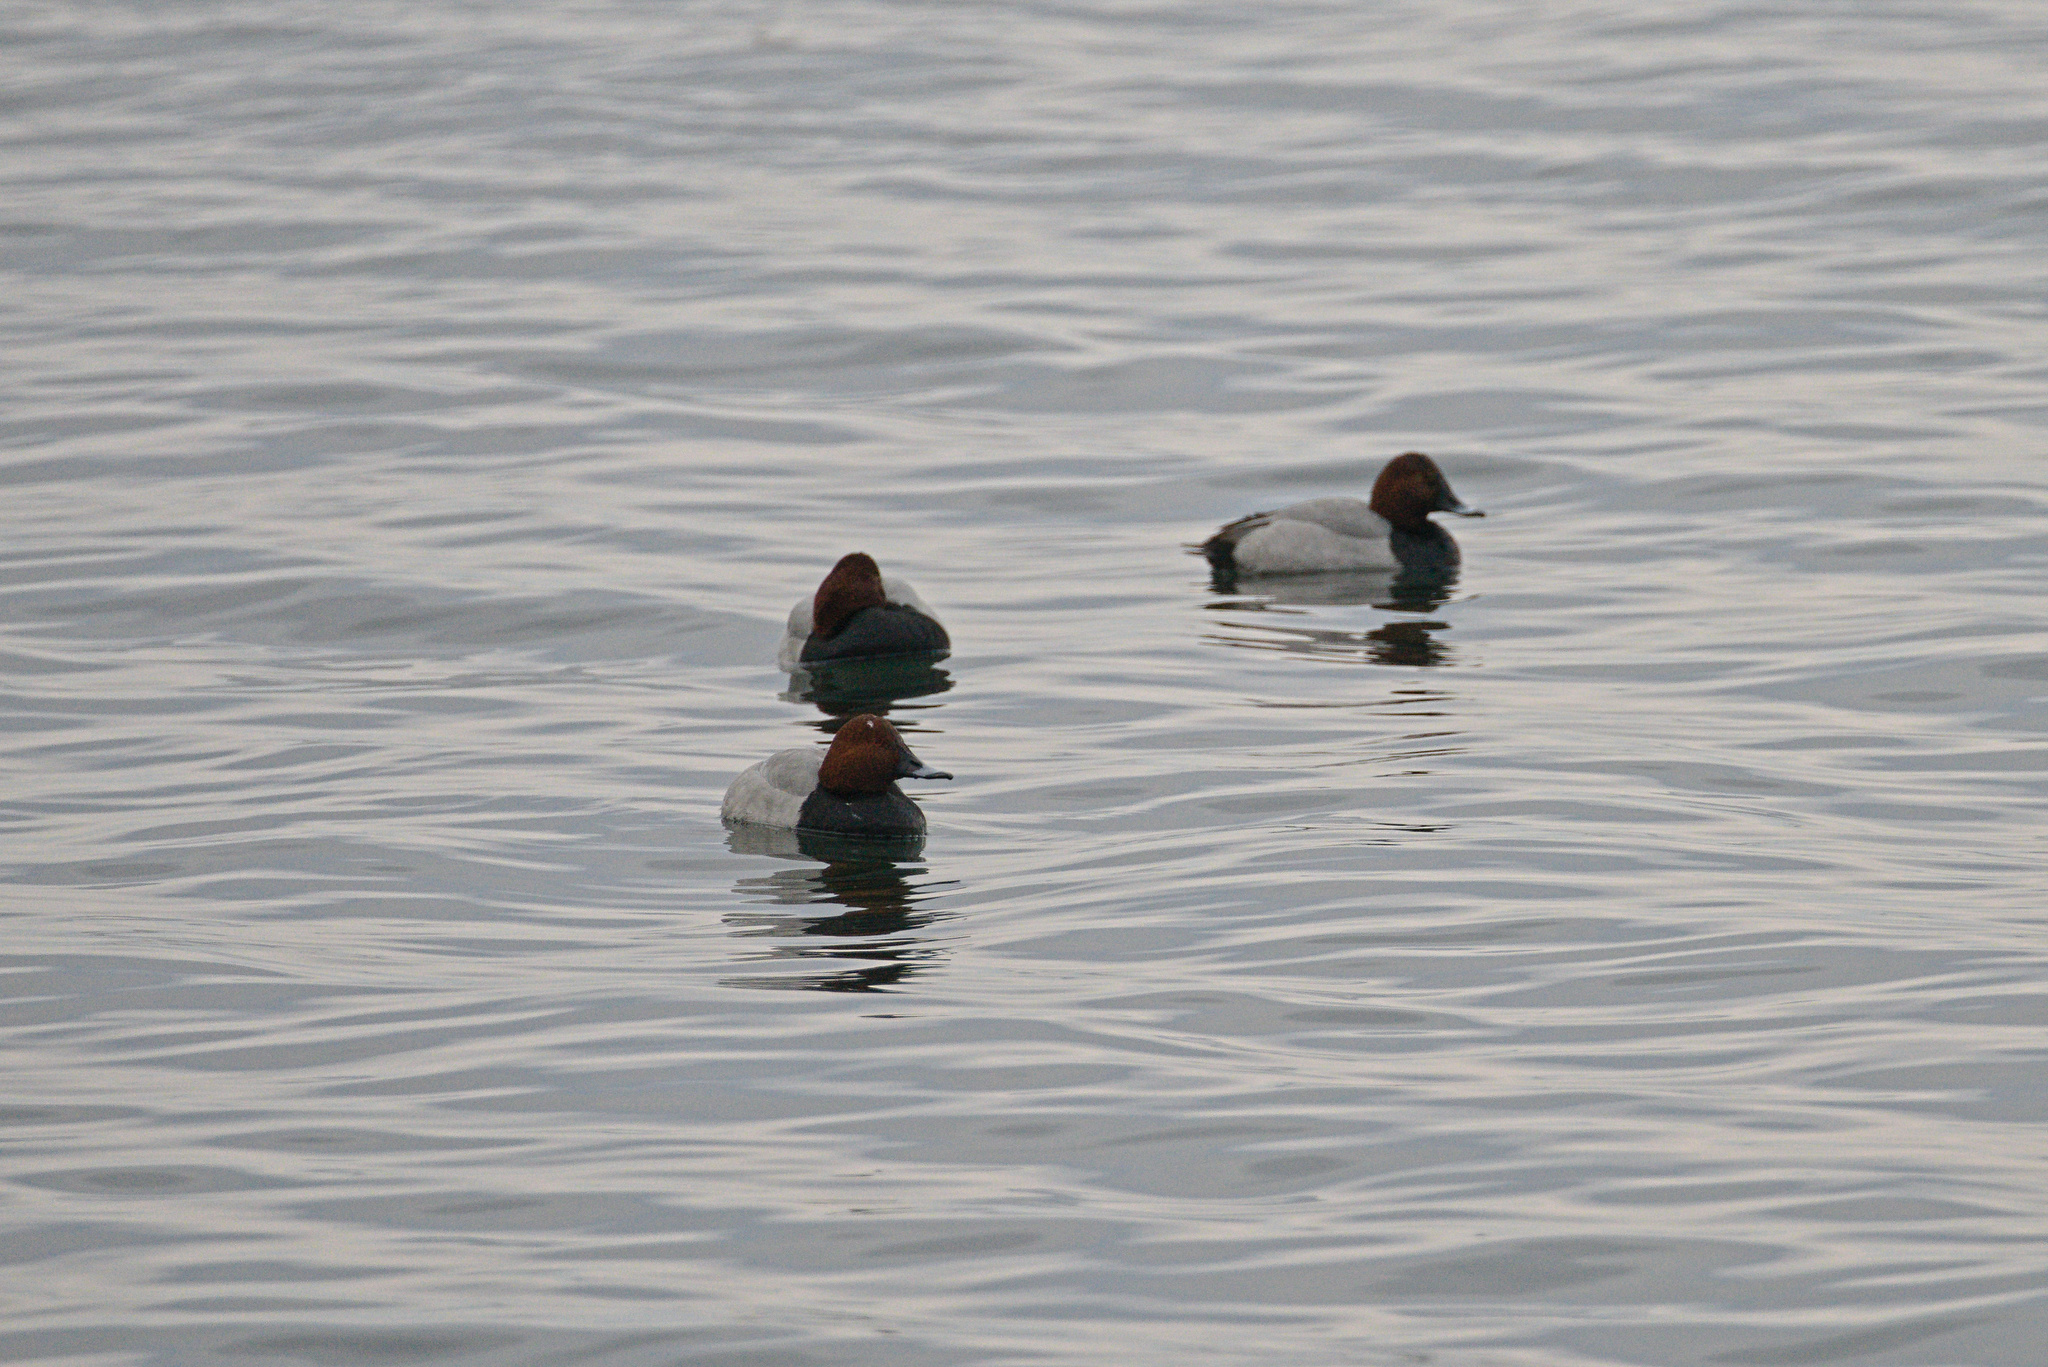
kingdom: Animalia
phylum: Chordata
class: Aves
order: Anseriformes
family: Anatidae
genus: Aythya
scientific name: Aythya ferina
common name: Common pochard
